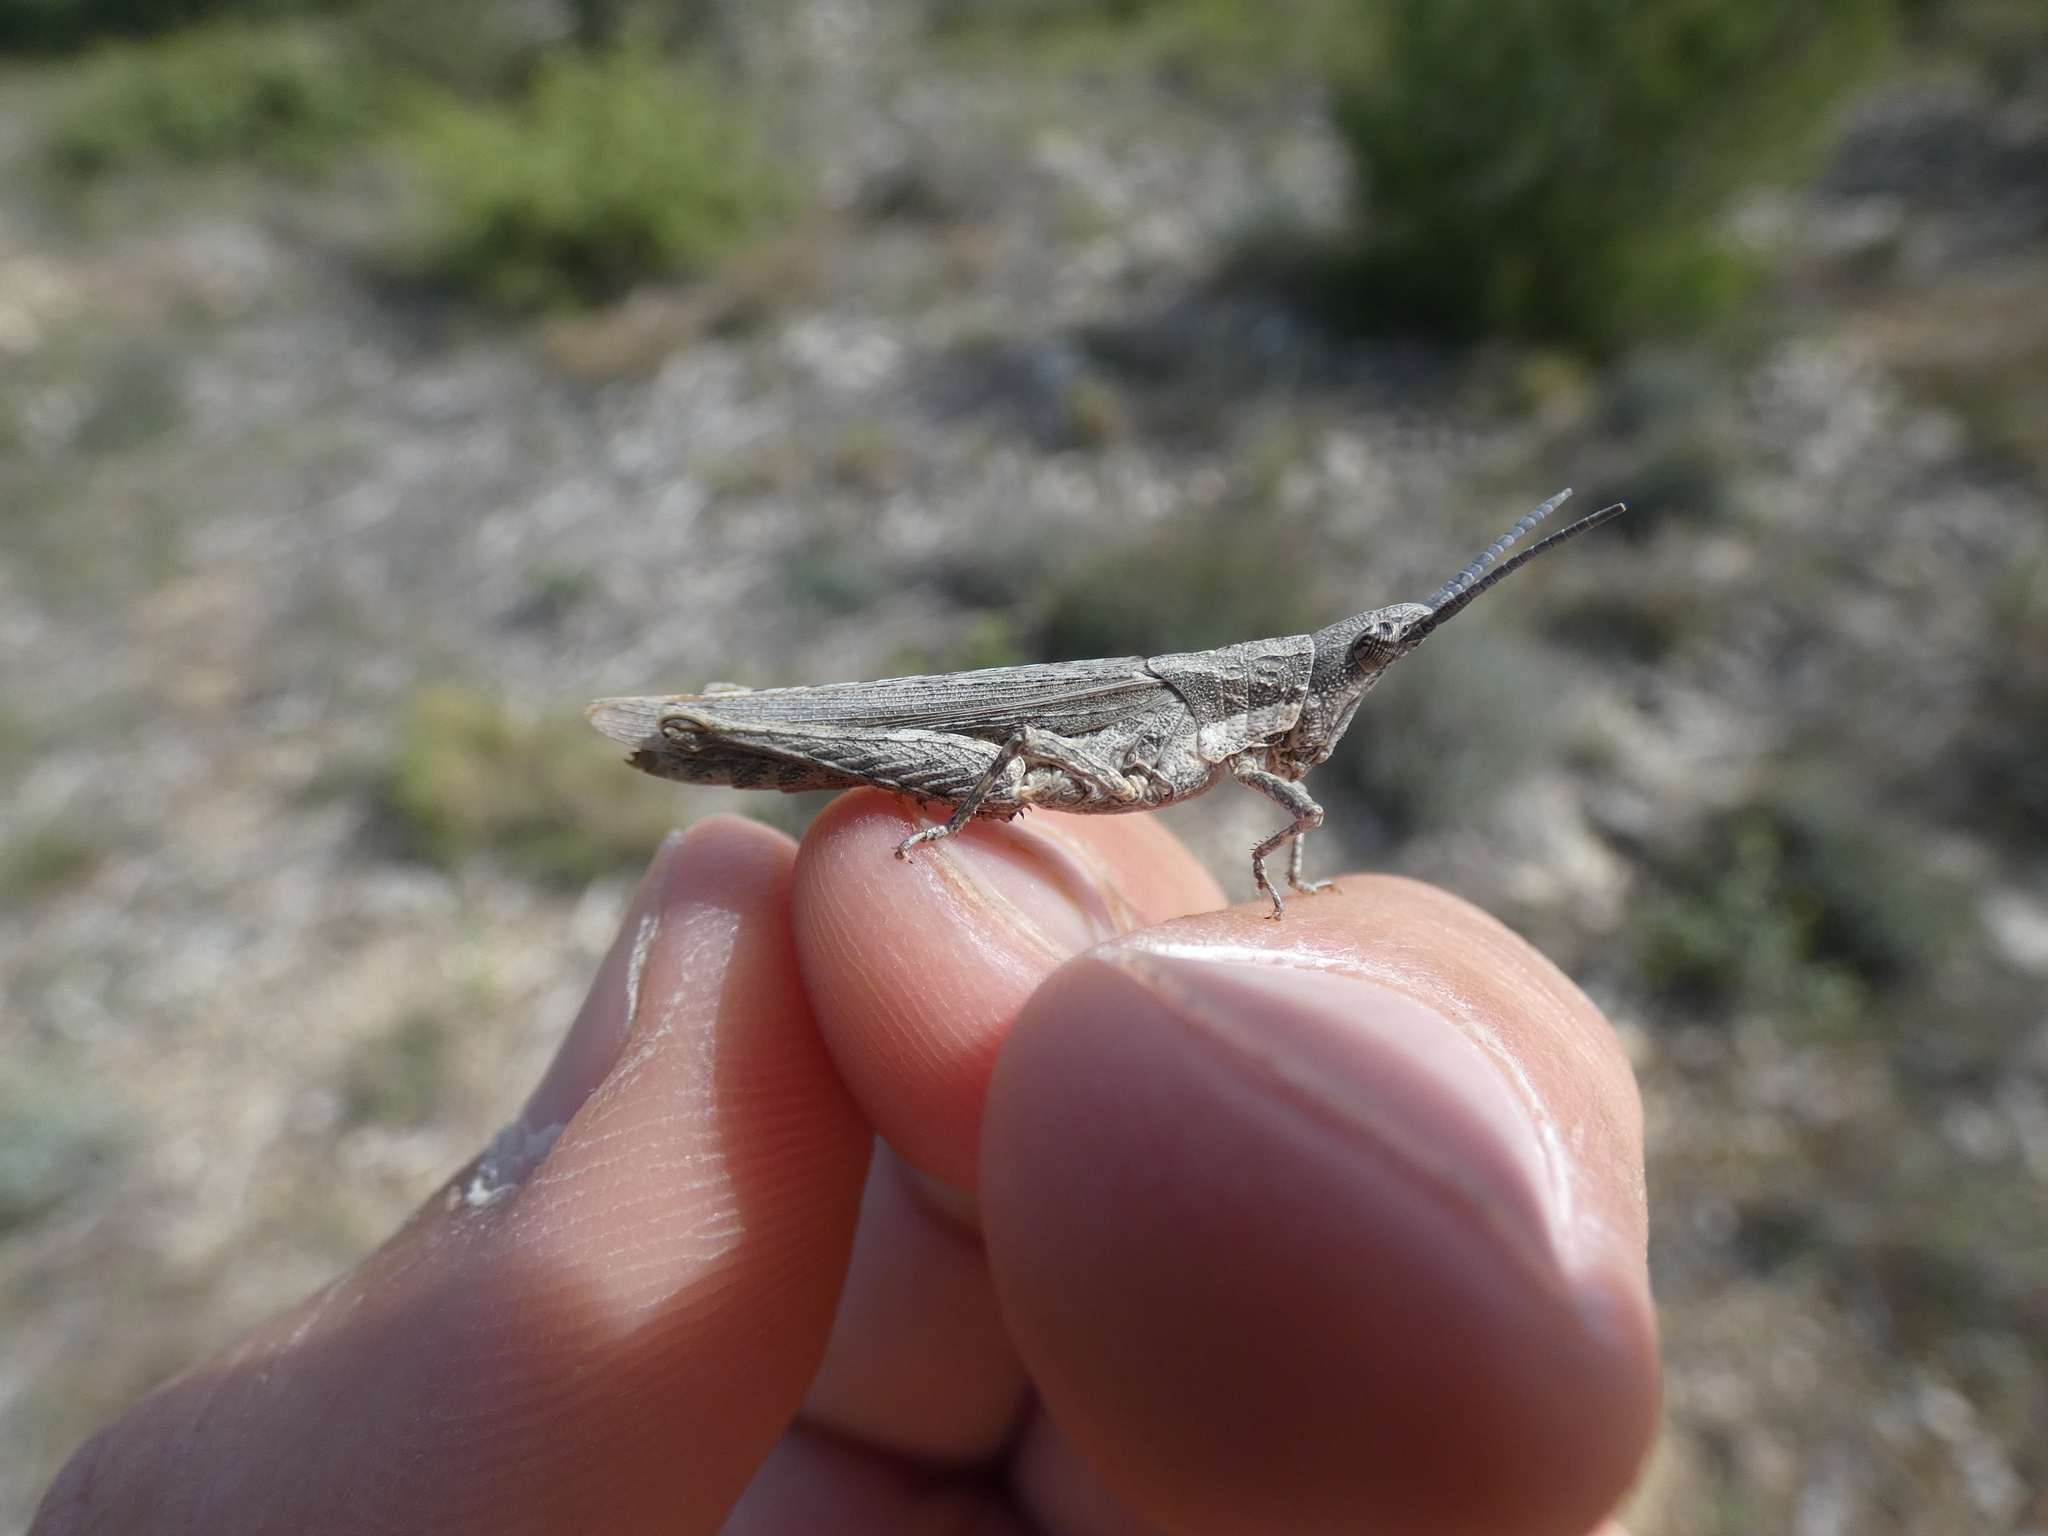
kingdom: Animalia
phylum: Arthropoda
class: Insecta
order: Orthoptera
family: Pyrgomorphidae
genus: Pyrgomorpha
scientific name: Pyrgomorpha conica
